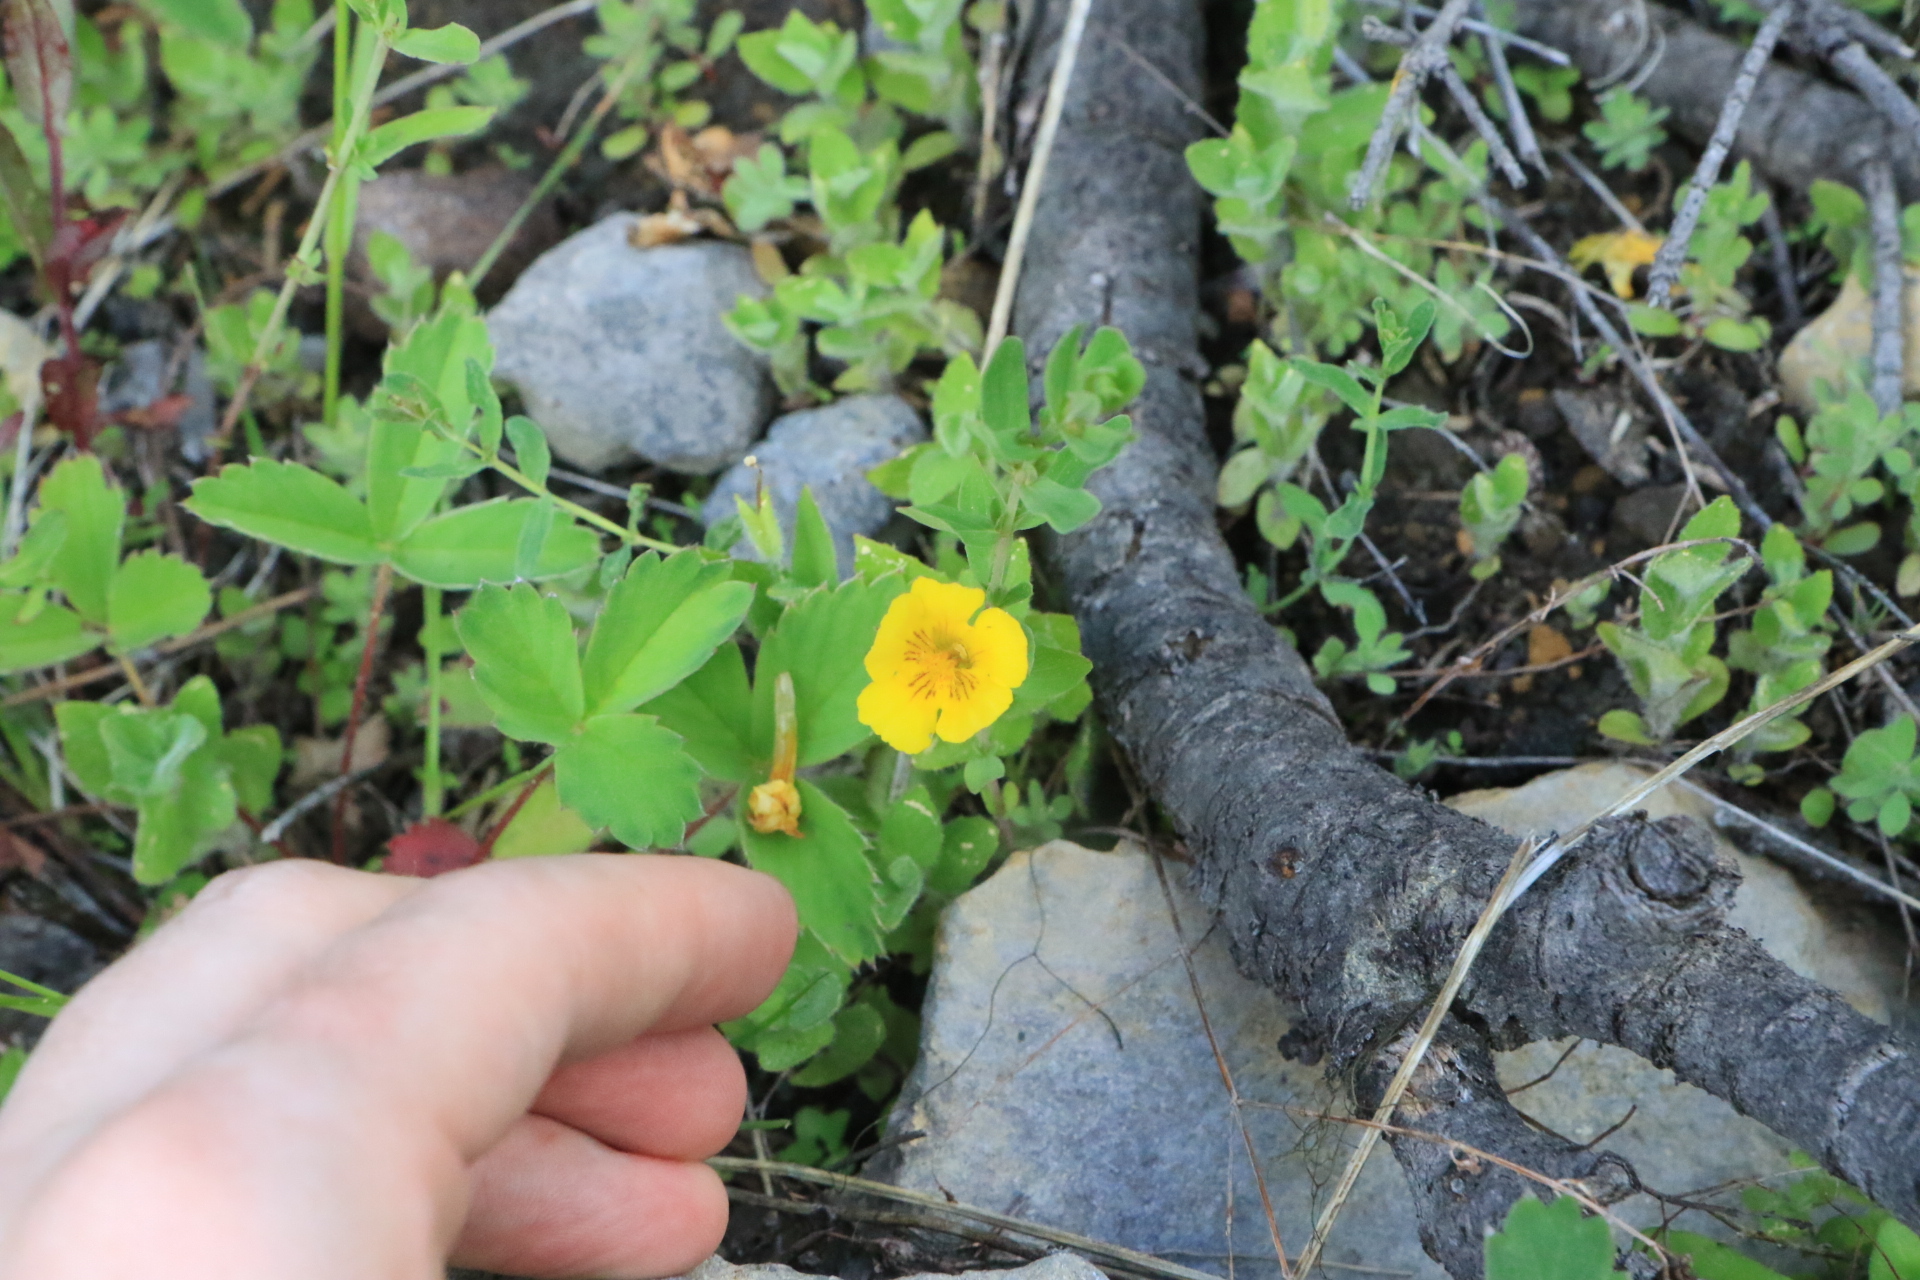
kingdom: Plantae
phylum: Tracheophyta
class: Magnoliopsida
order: Lamiales
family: Phrymaceae
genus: Erythranthe
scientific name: Erythranthe moschata
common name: Muskflower
